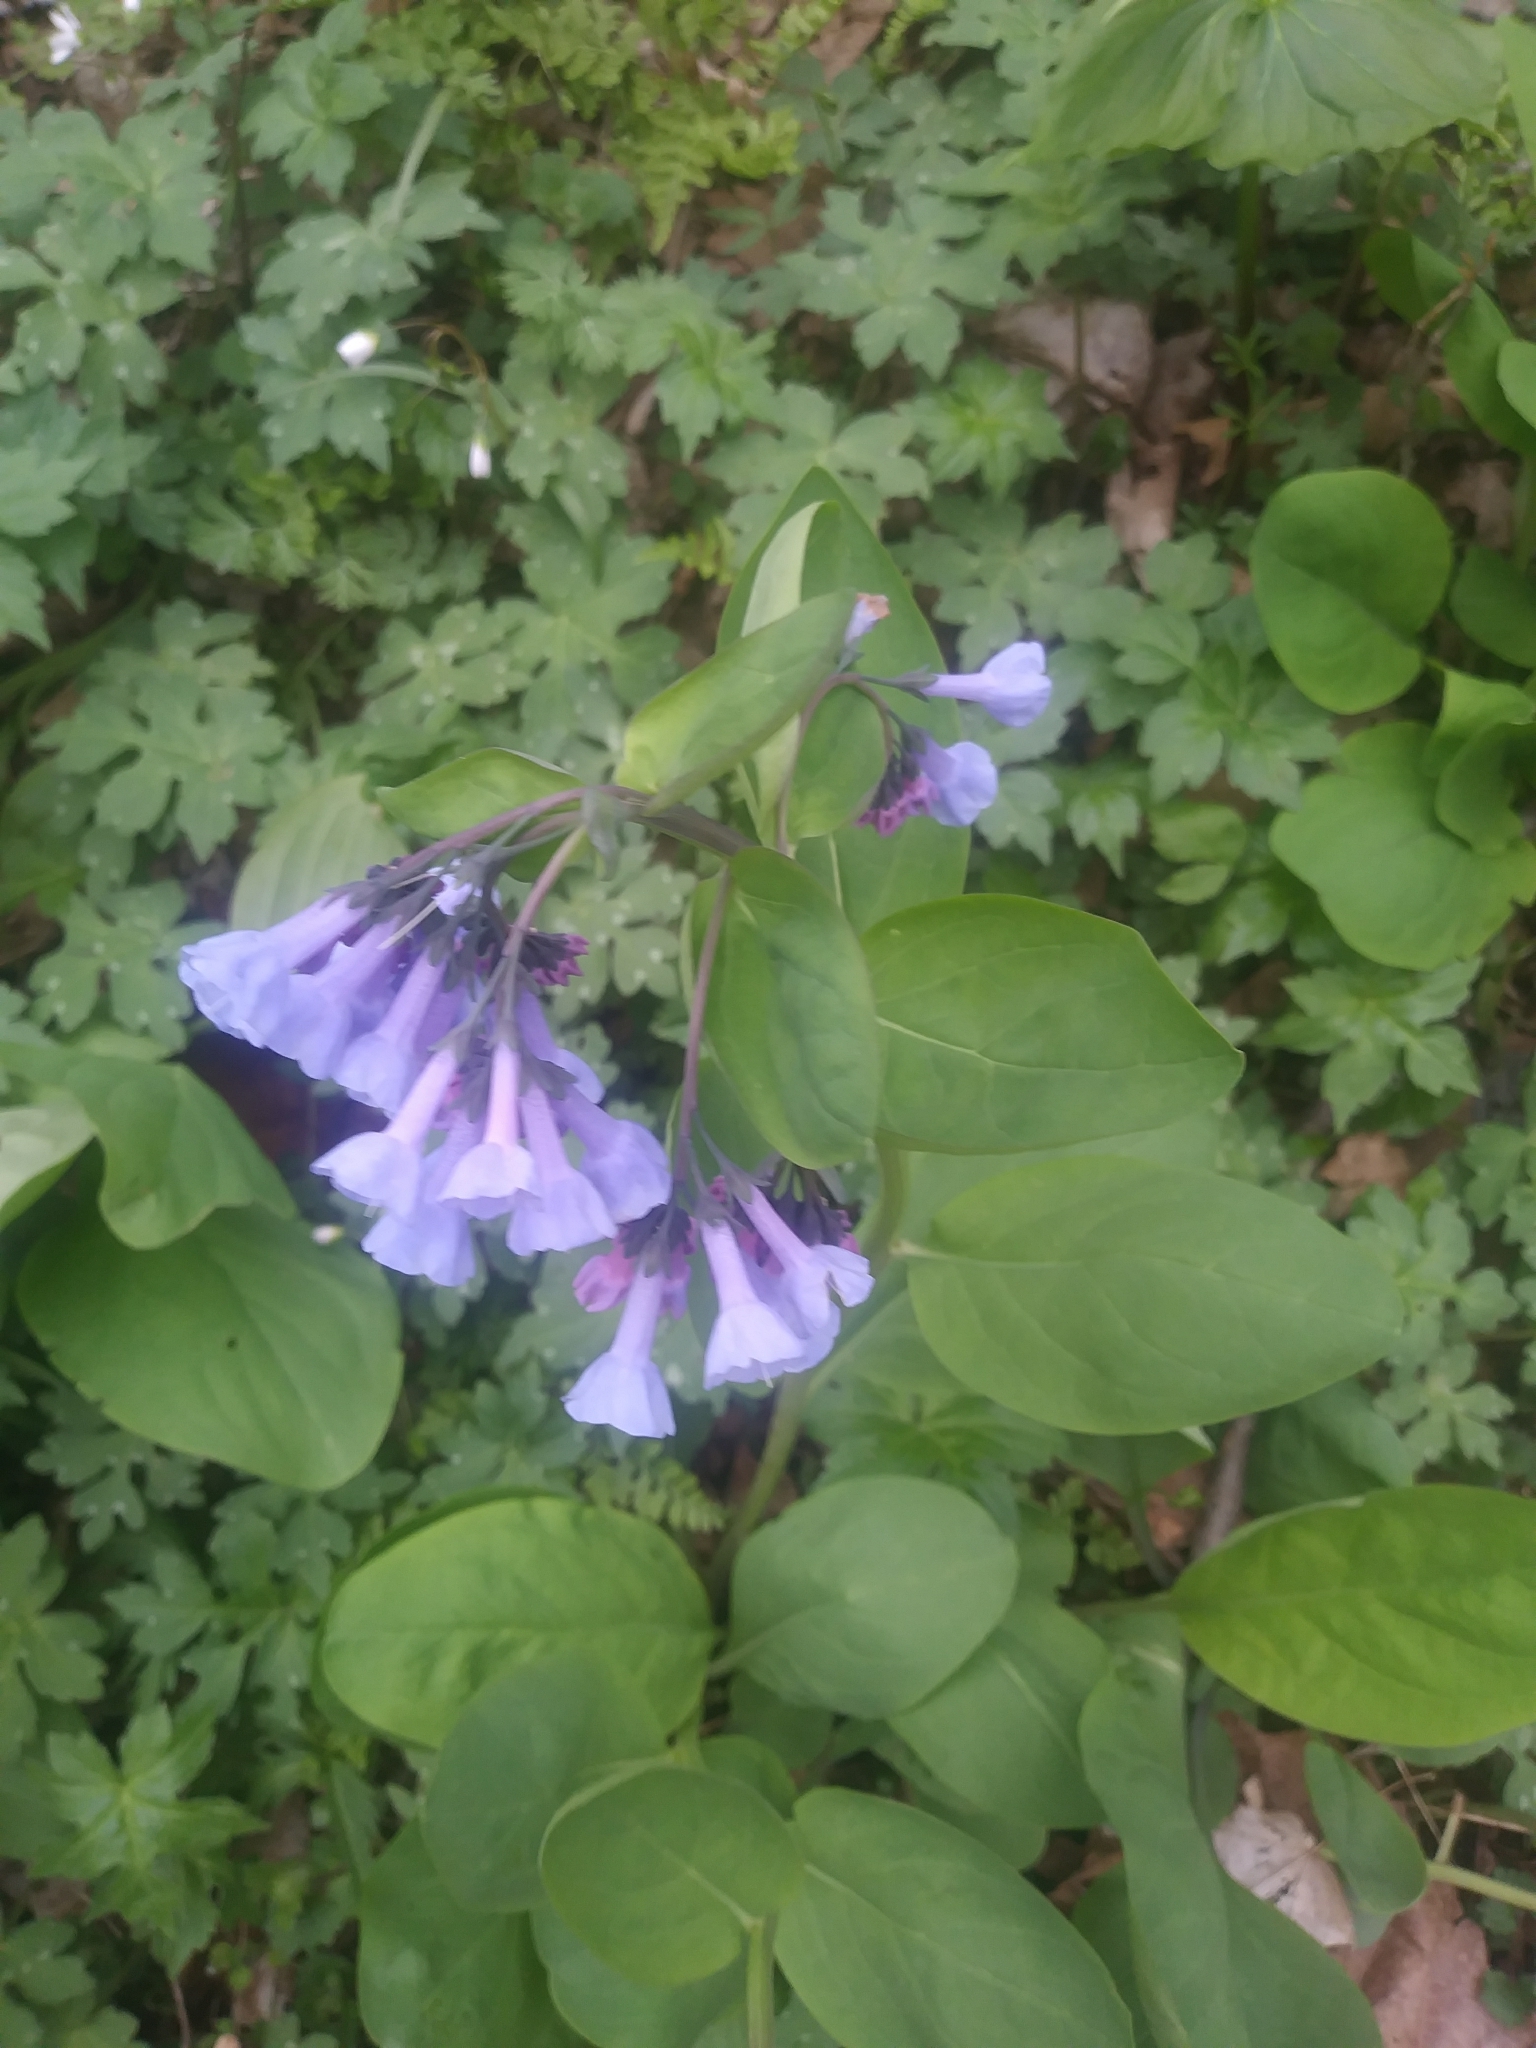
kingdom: Plantae
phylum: Tracheophyta
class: Magnoliopsida
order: Boraginales
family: Boraginaceae
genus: Mertensia
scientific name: Mertensia virginica
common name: Virginia bluebells
